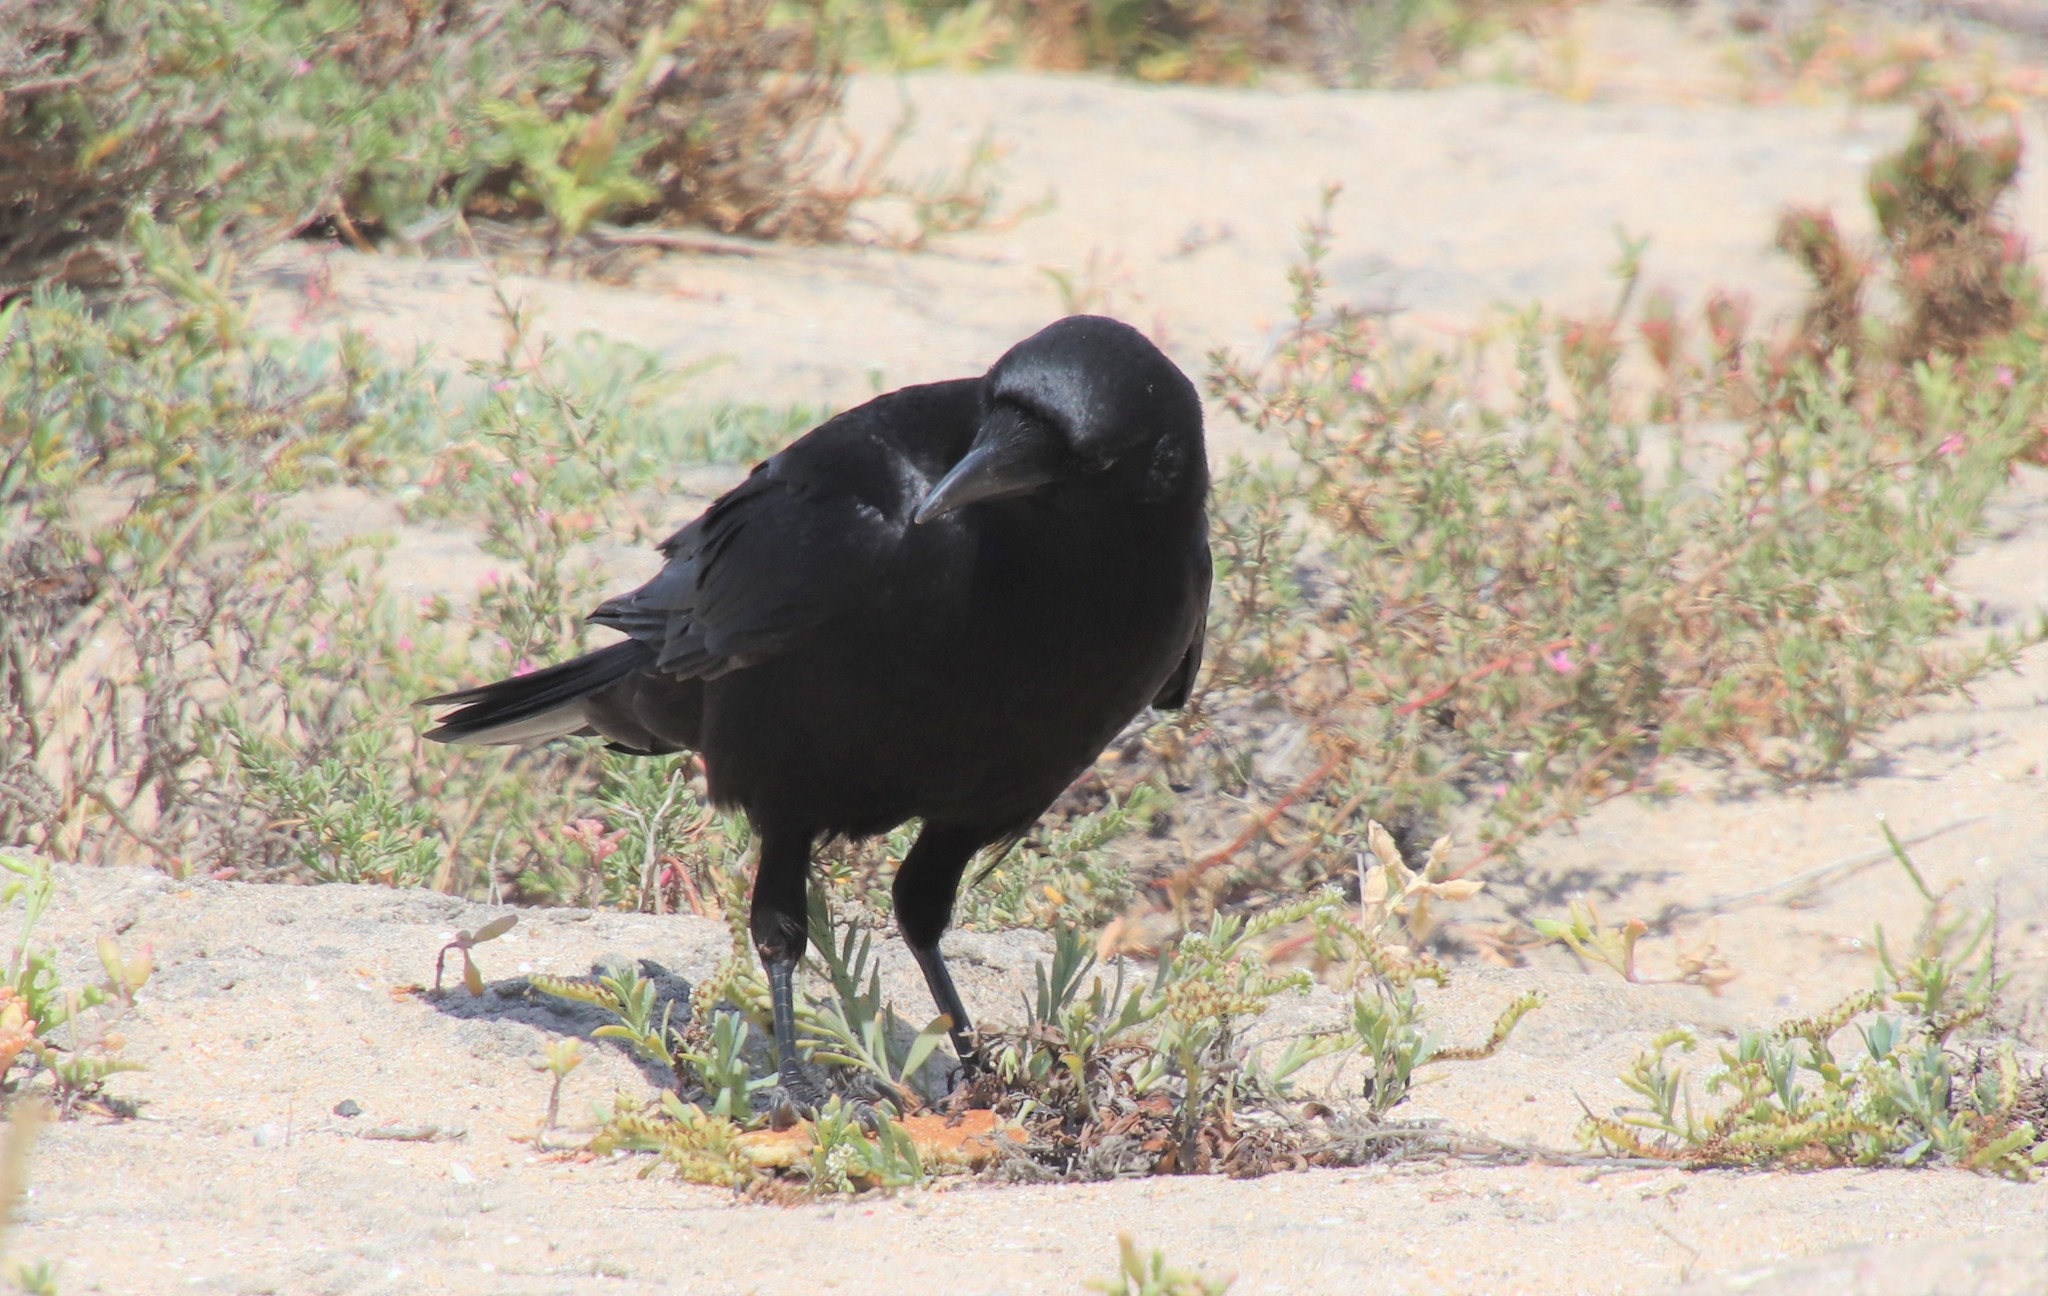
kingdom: Animalia
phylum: Chordata
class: Aves
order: Passeriformes
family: Corvidae
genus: Corvus
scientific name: Corvus brachyrhynchos
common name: American crow
